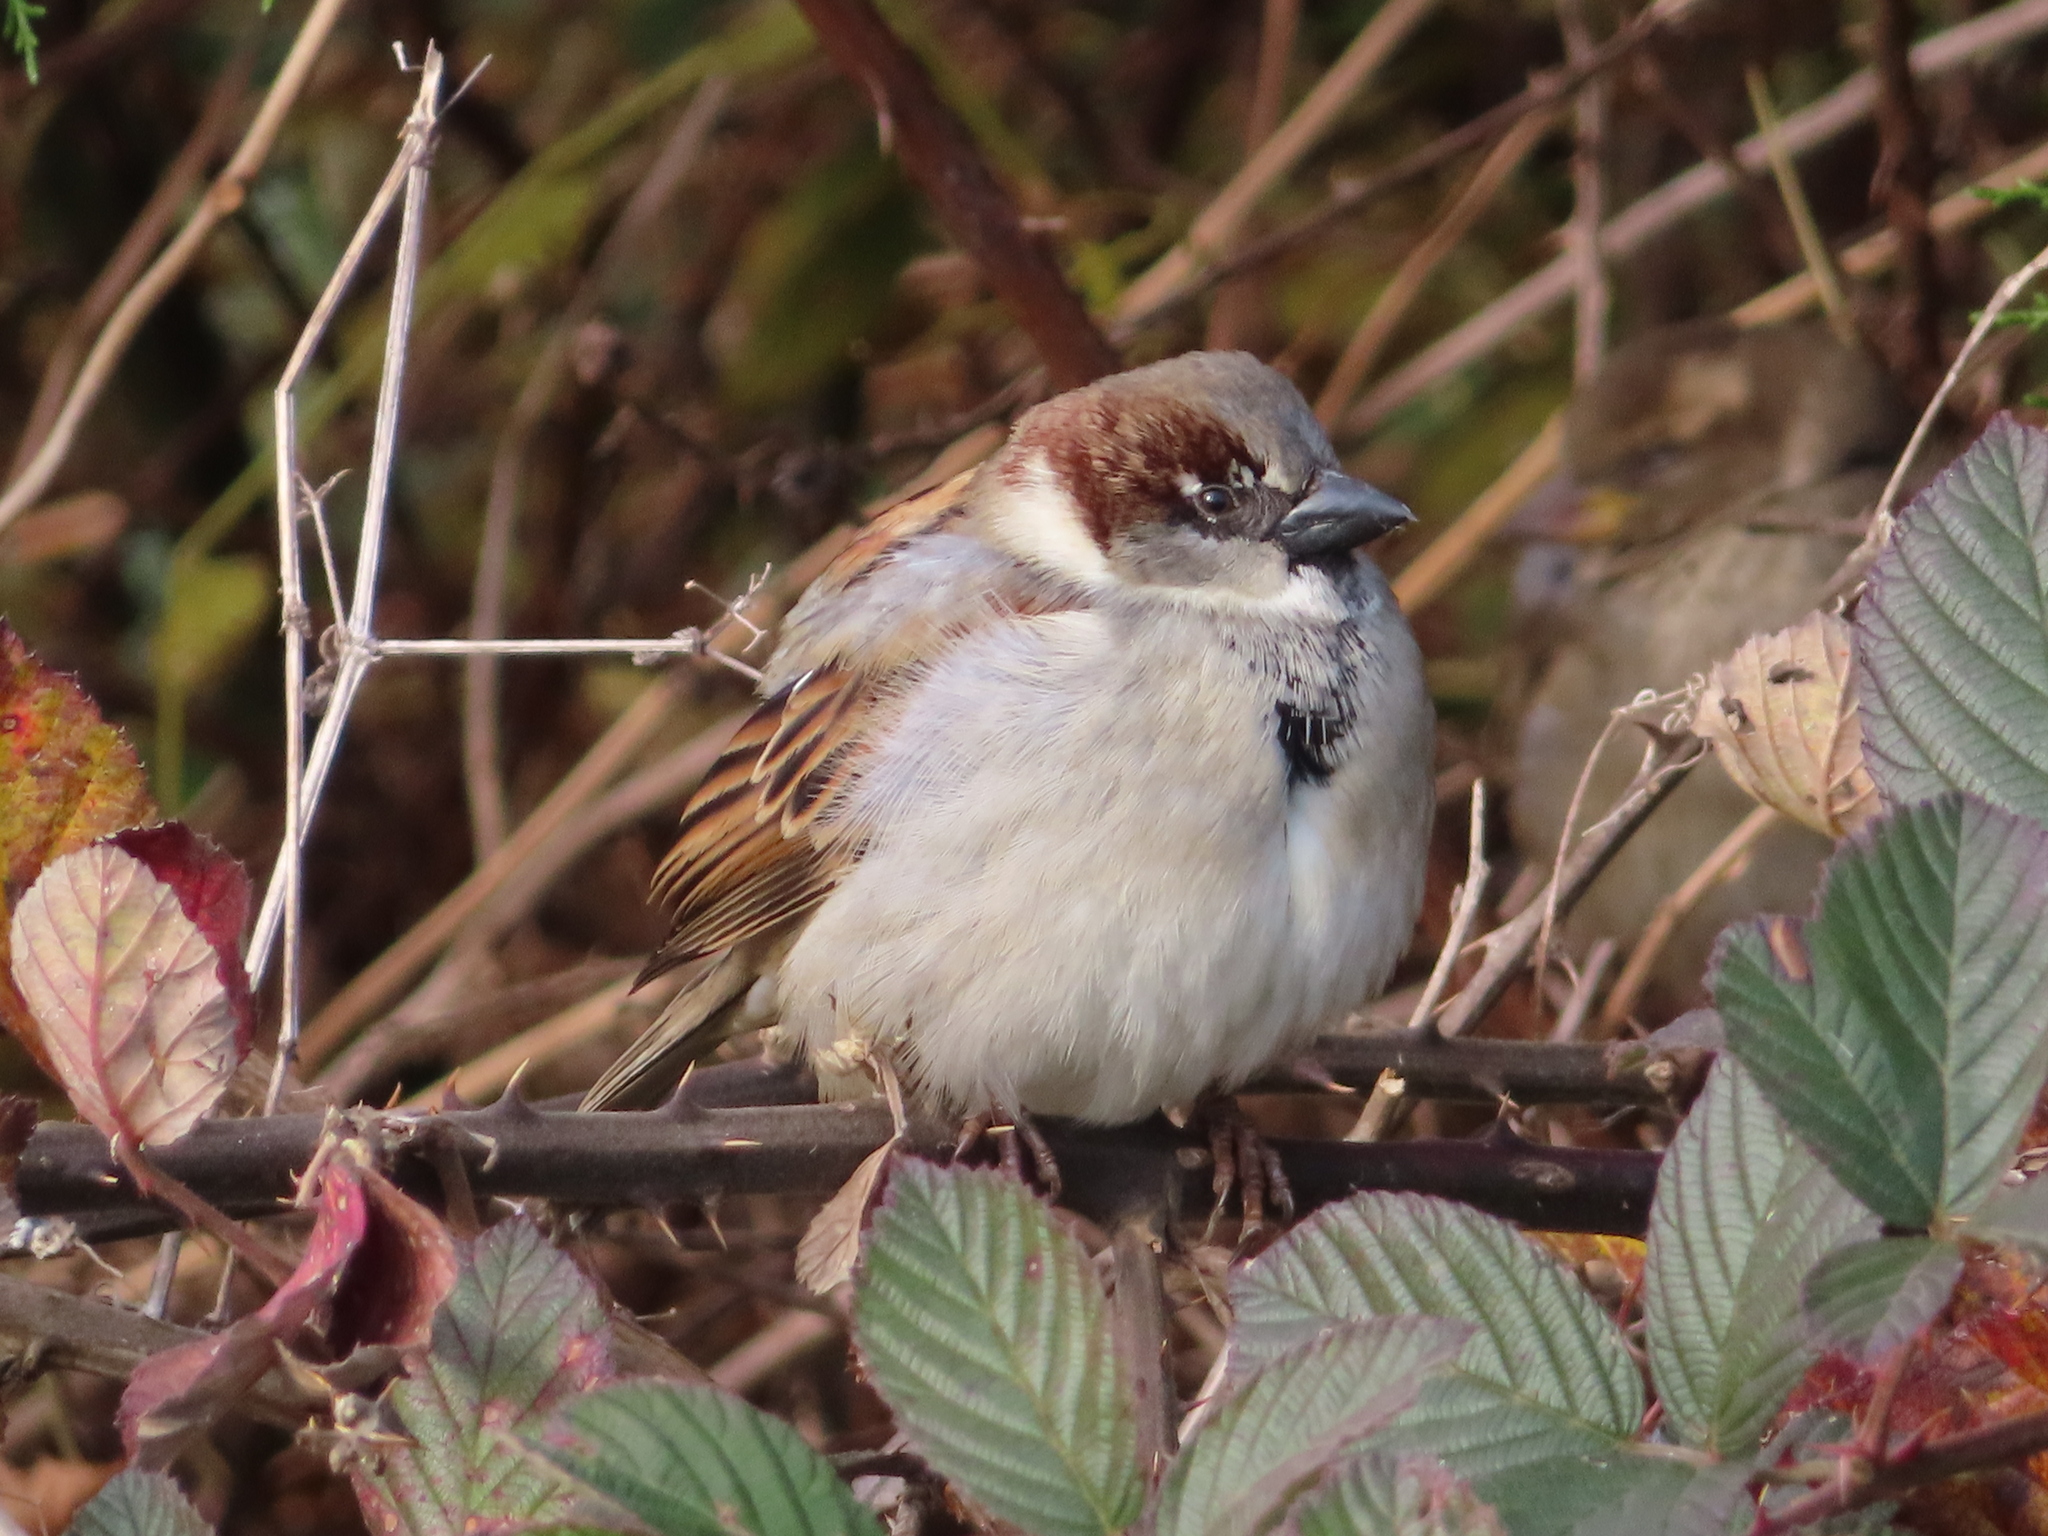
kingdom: Animalia
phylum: Chordata
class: Aves
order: Passeriformes
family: Passeridae
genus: Passer
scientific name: Passer domesticus
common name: House sparrow
